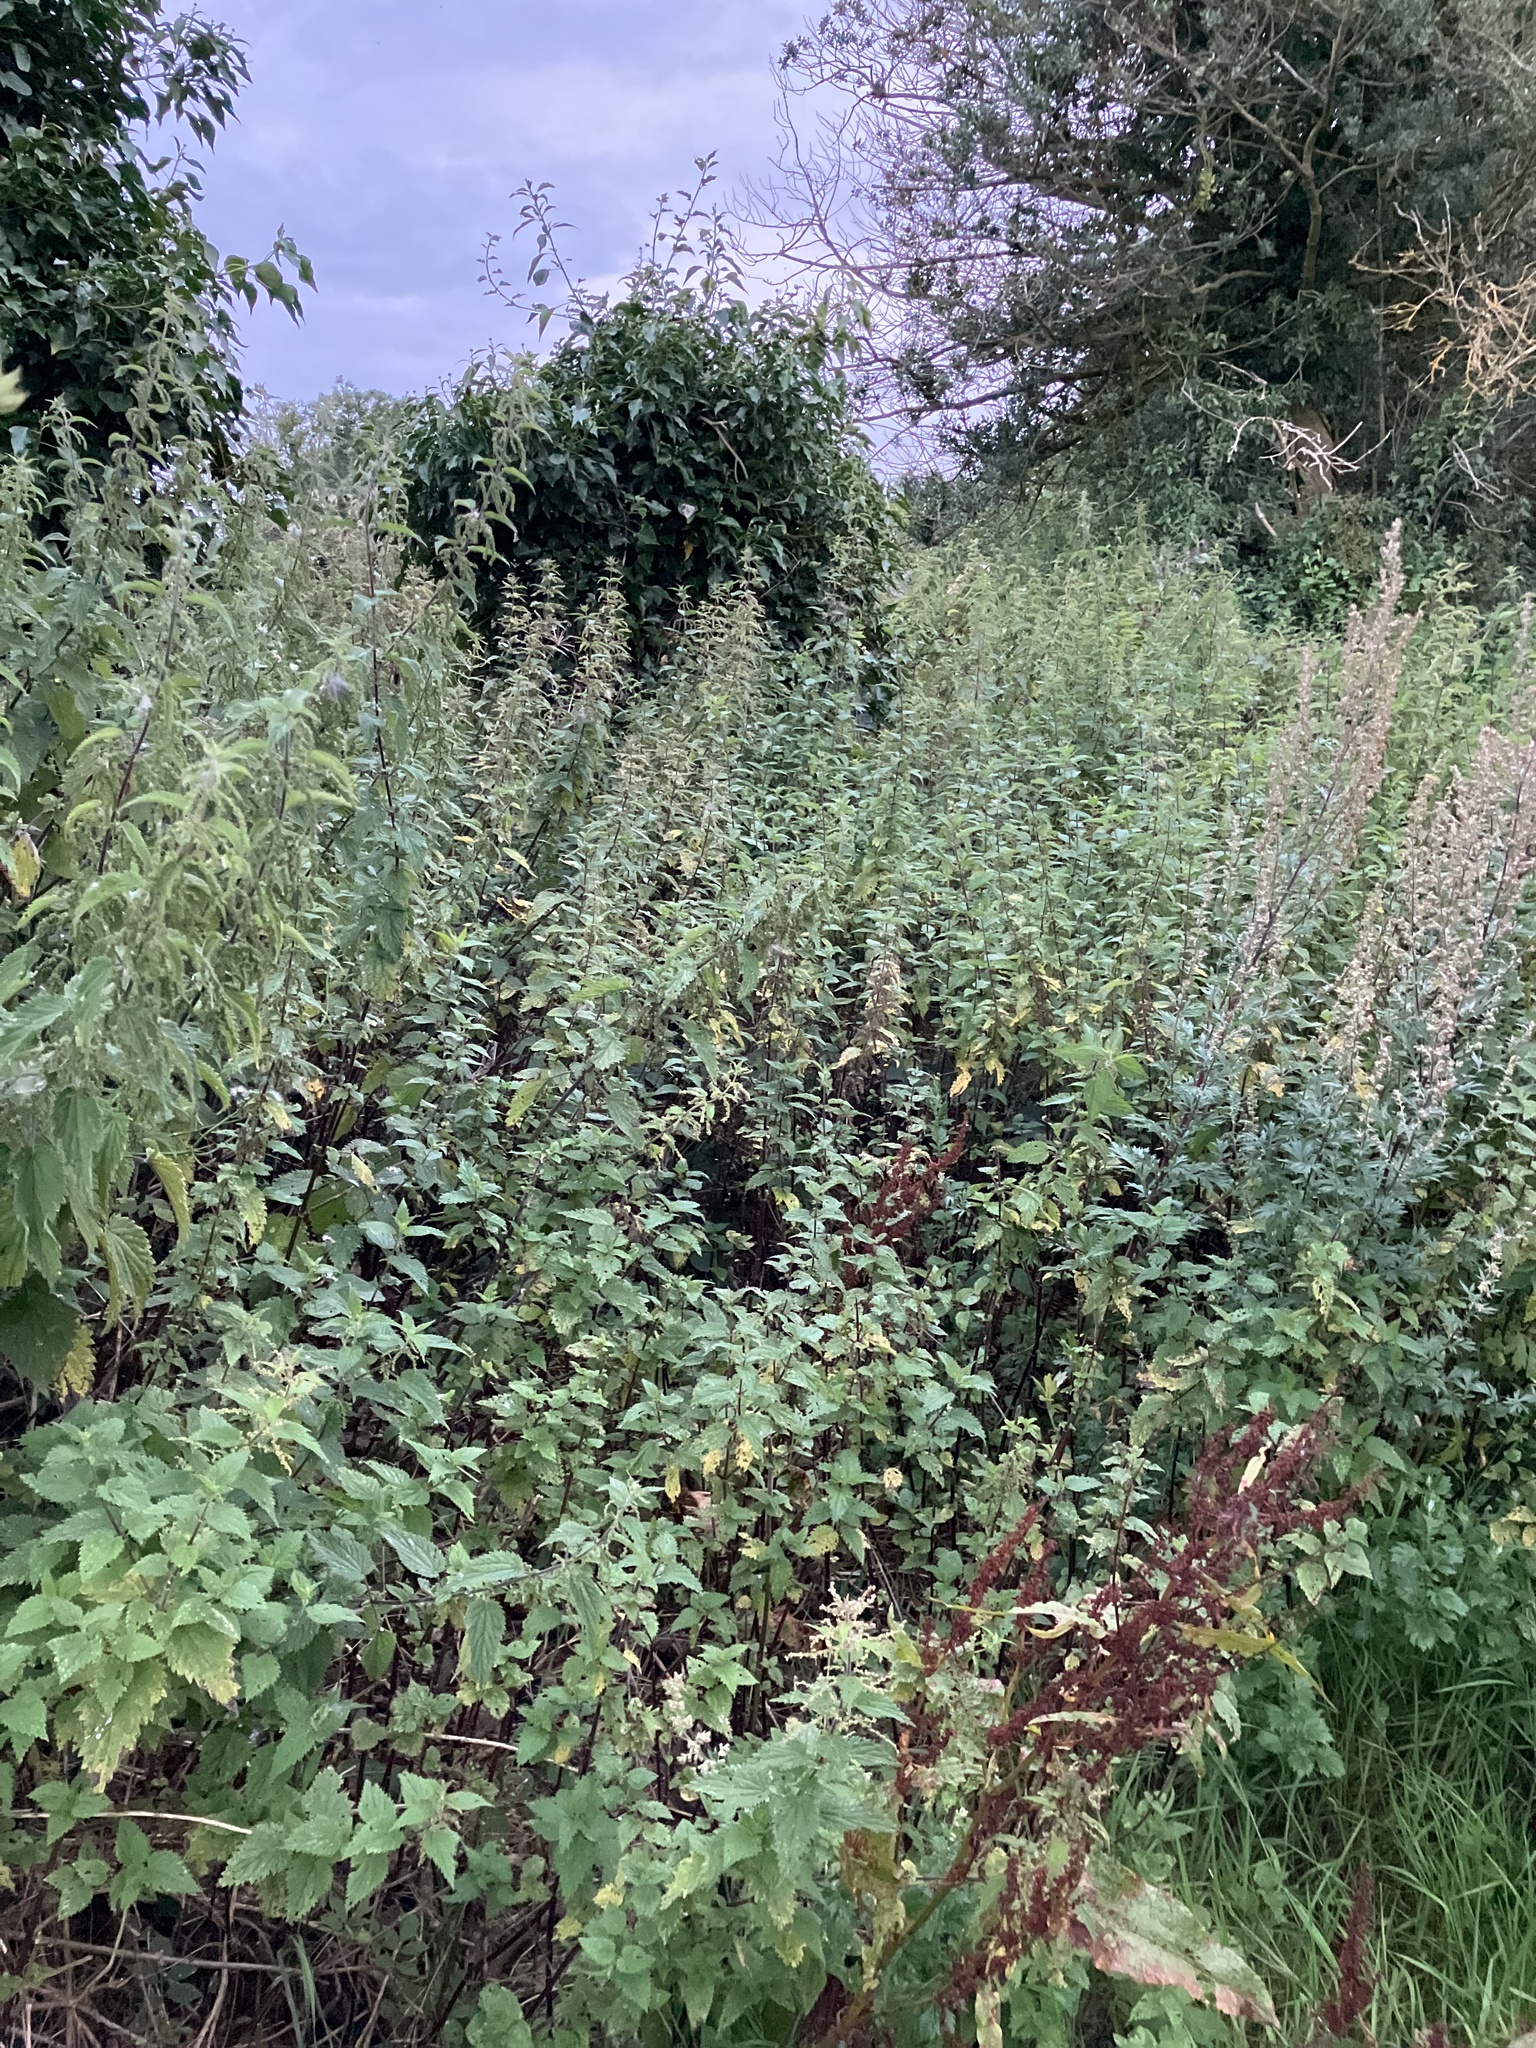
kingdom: Plantae
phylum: Tracheophyta
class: Magnoliopsida
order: Rosales
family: Urticaceae
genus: Urtica
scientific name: Urtica dioica
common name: Common nettle
